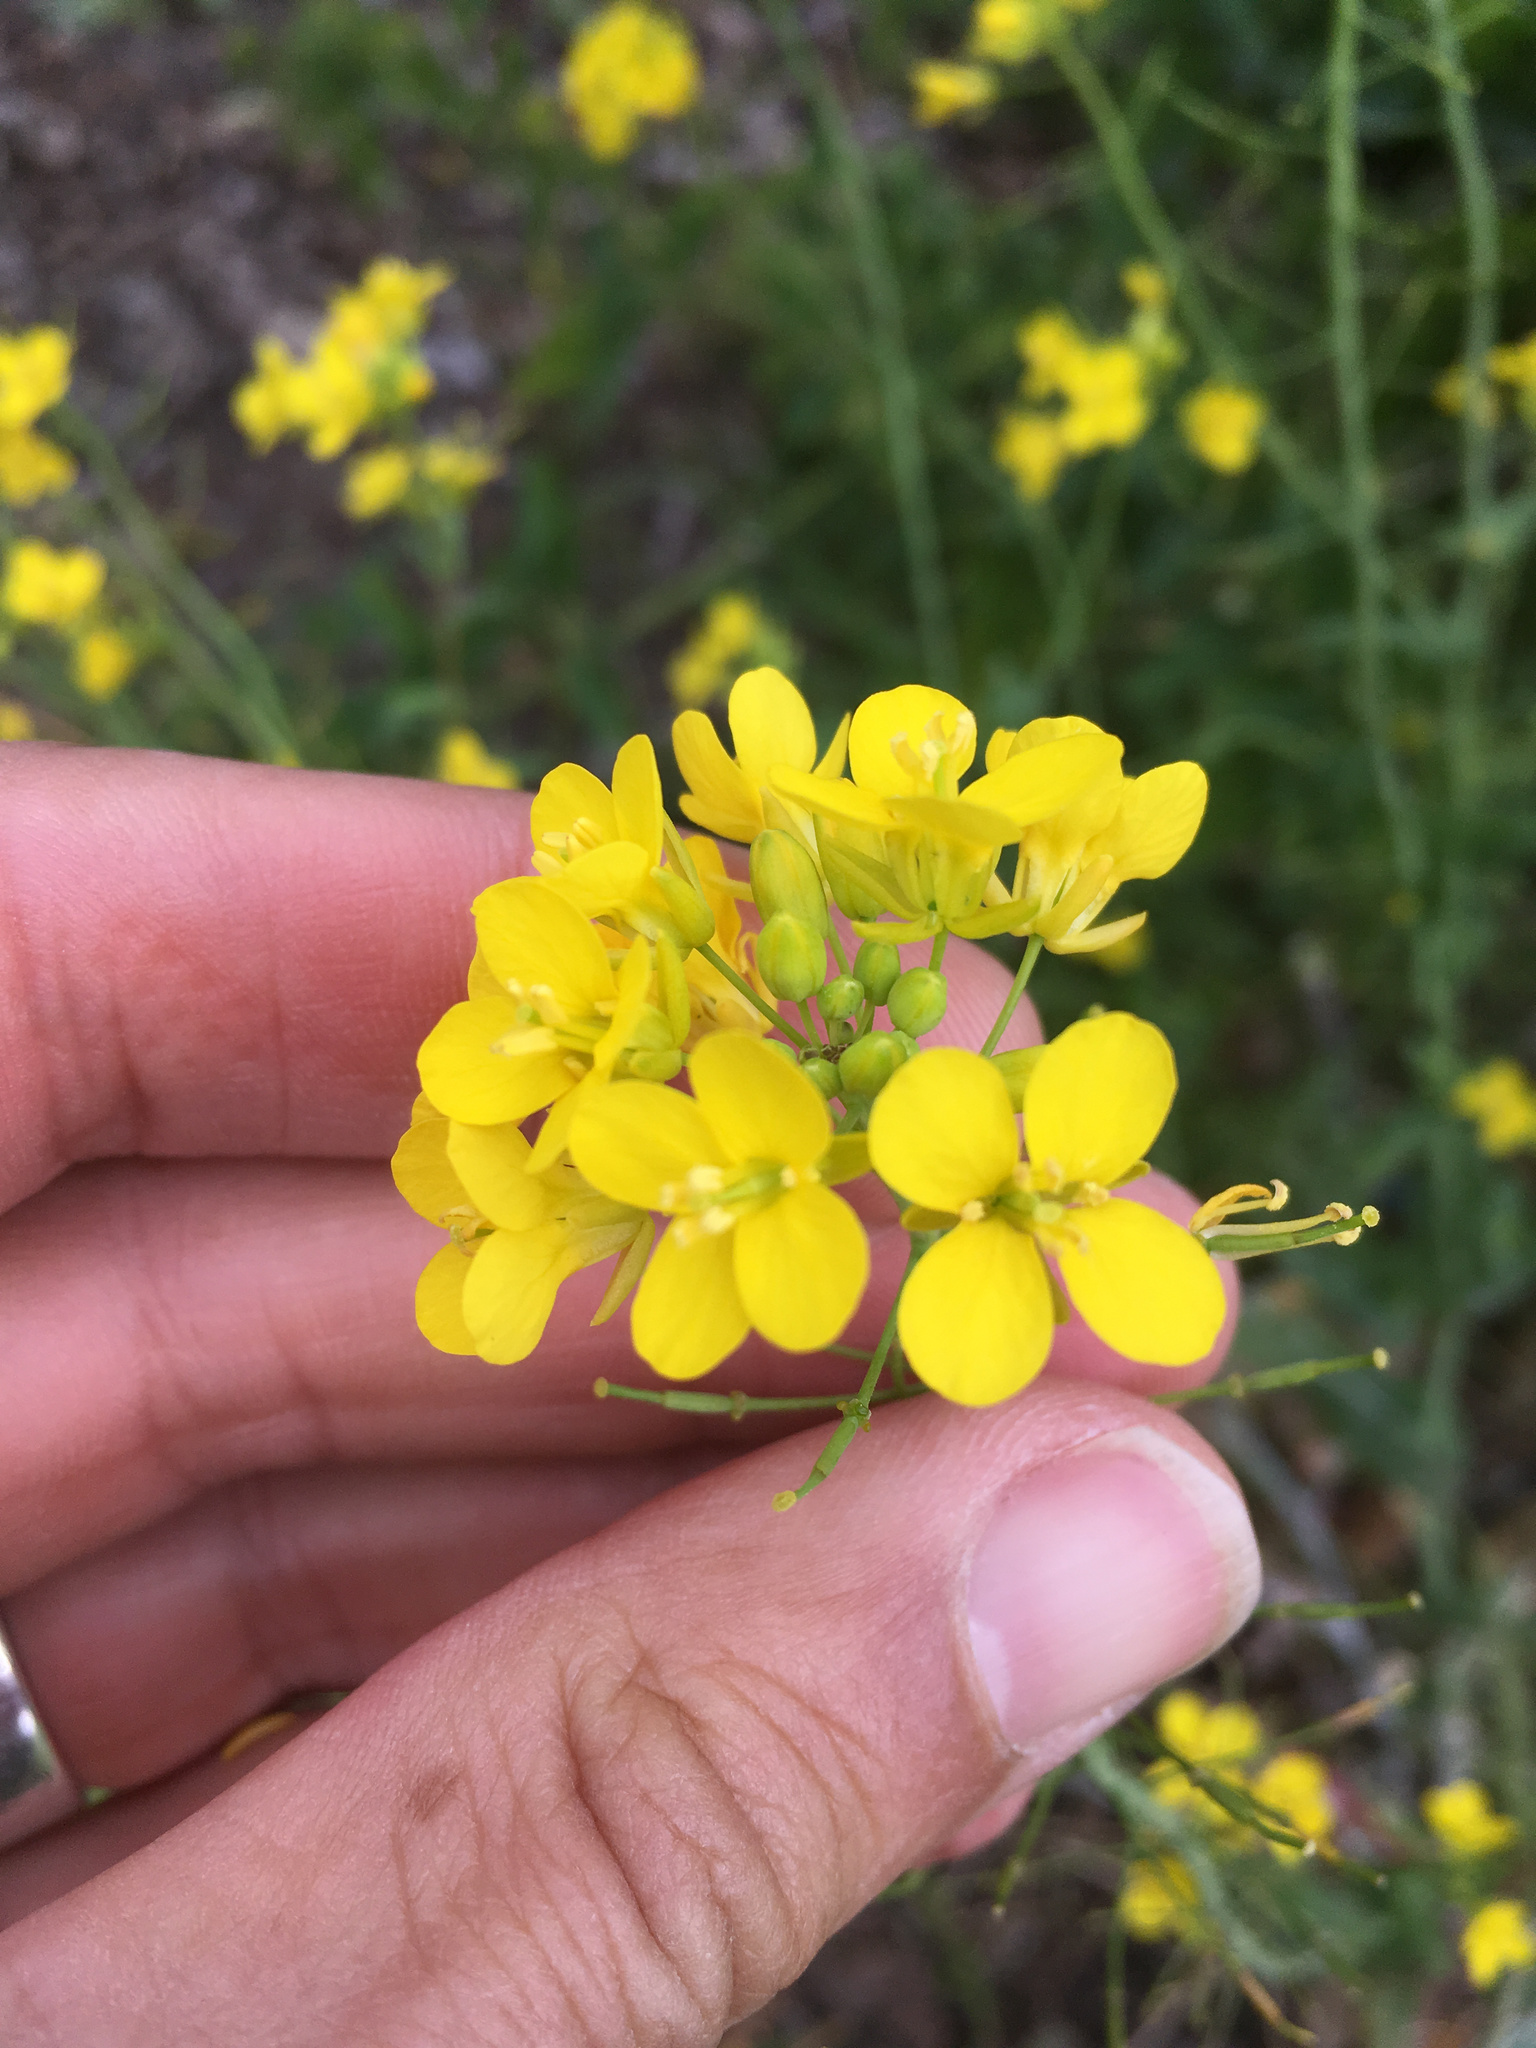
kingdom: Plantae
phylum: Tracheophyta
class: Magnoliopsida
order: Brassicales
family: Brassicaceae
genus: Brassica
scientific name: Brassica rapa
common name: Field mustard
